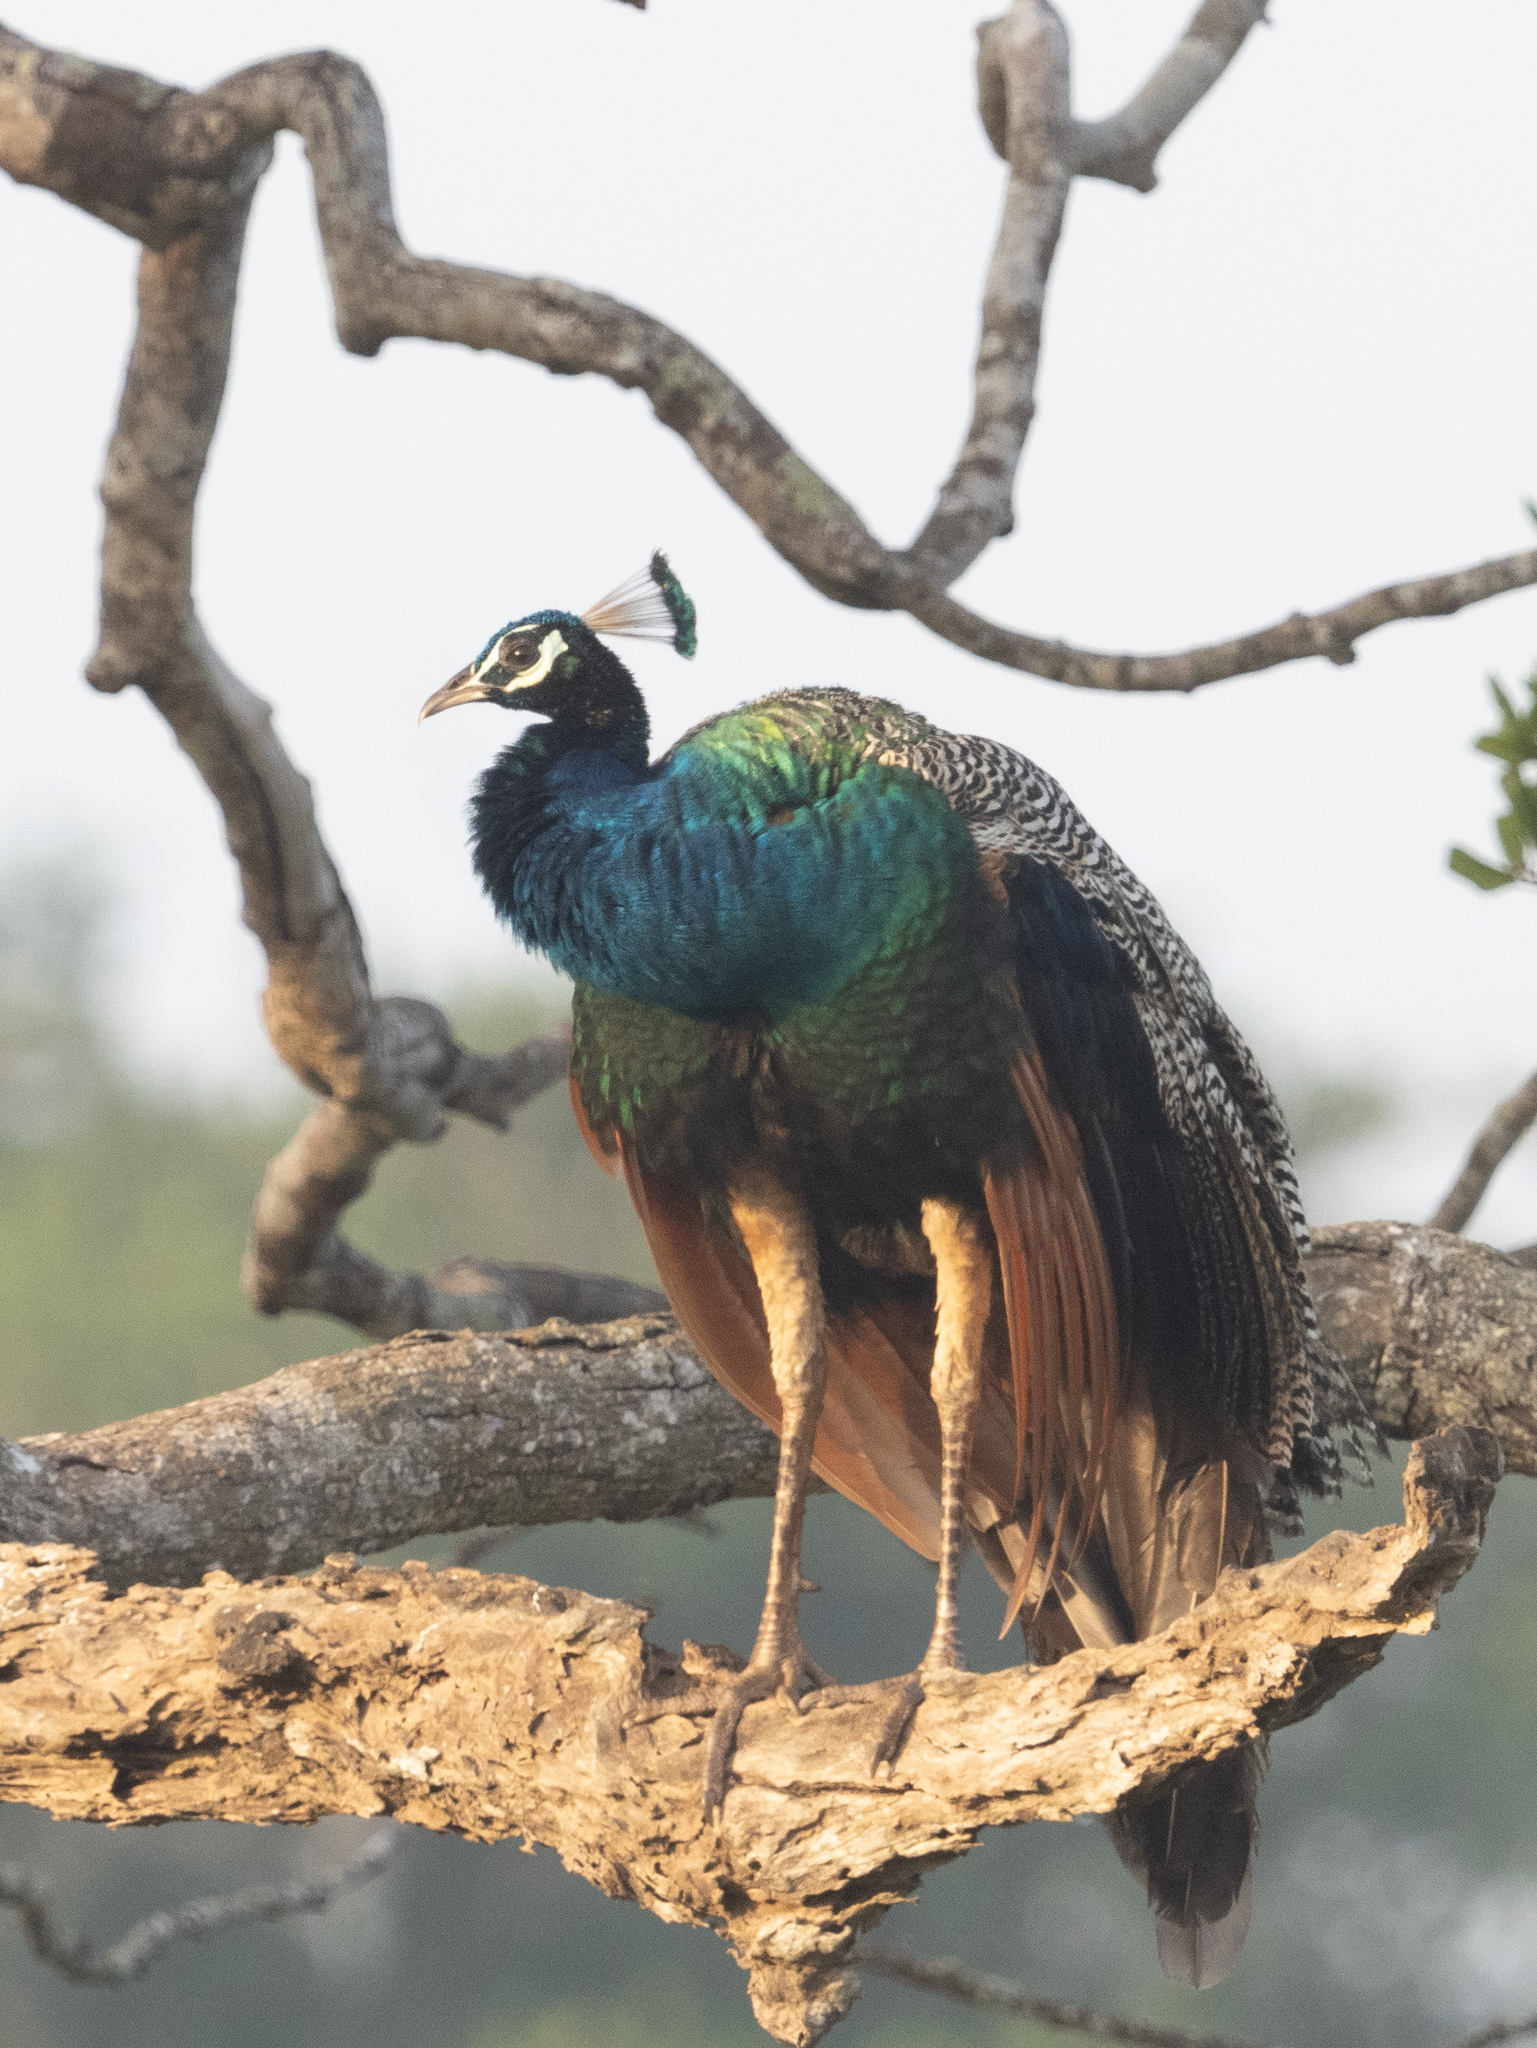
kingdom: Animalia
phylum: Chordata
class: Aves
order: Galliformes
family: Phasianidae
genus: Pavo
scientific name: Pavo cristatus
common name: Indian peafowl
